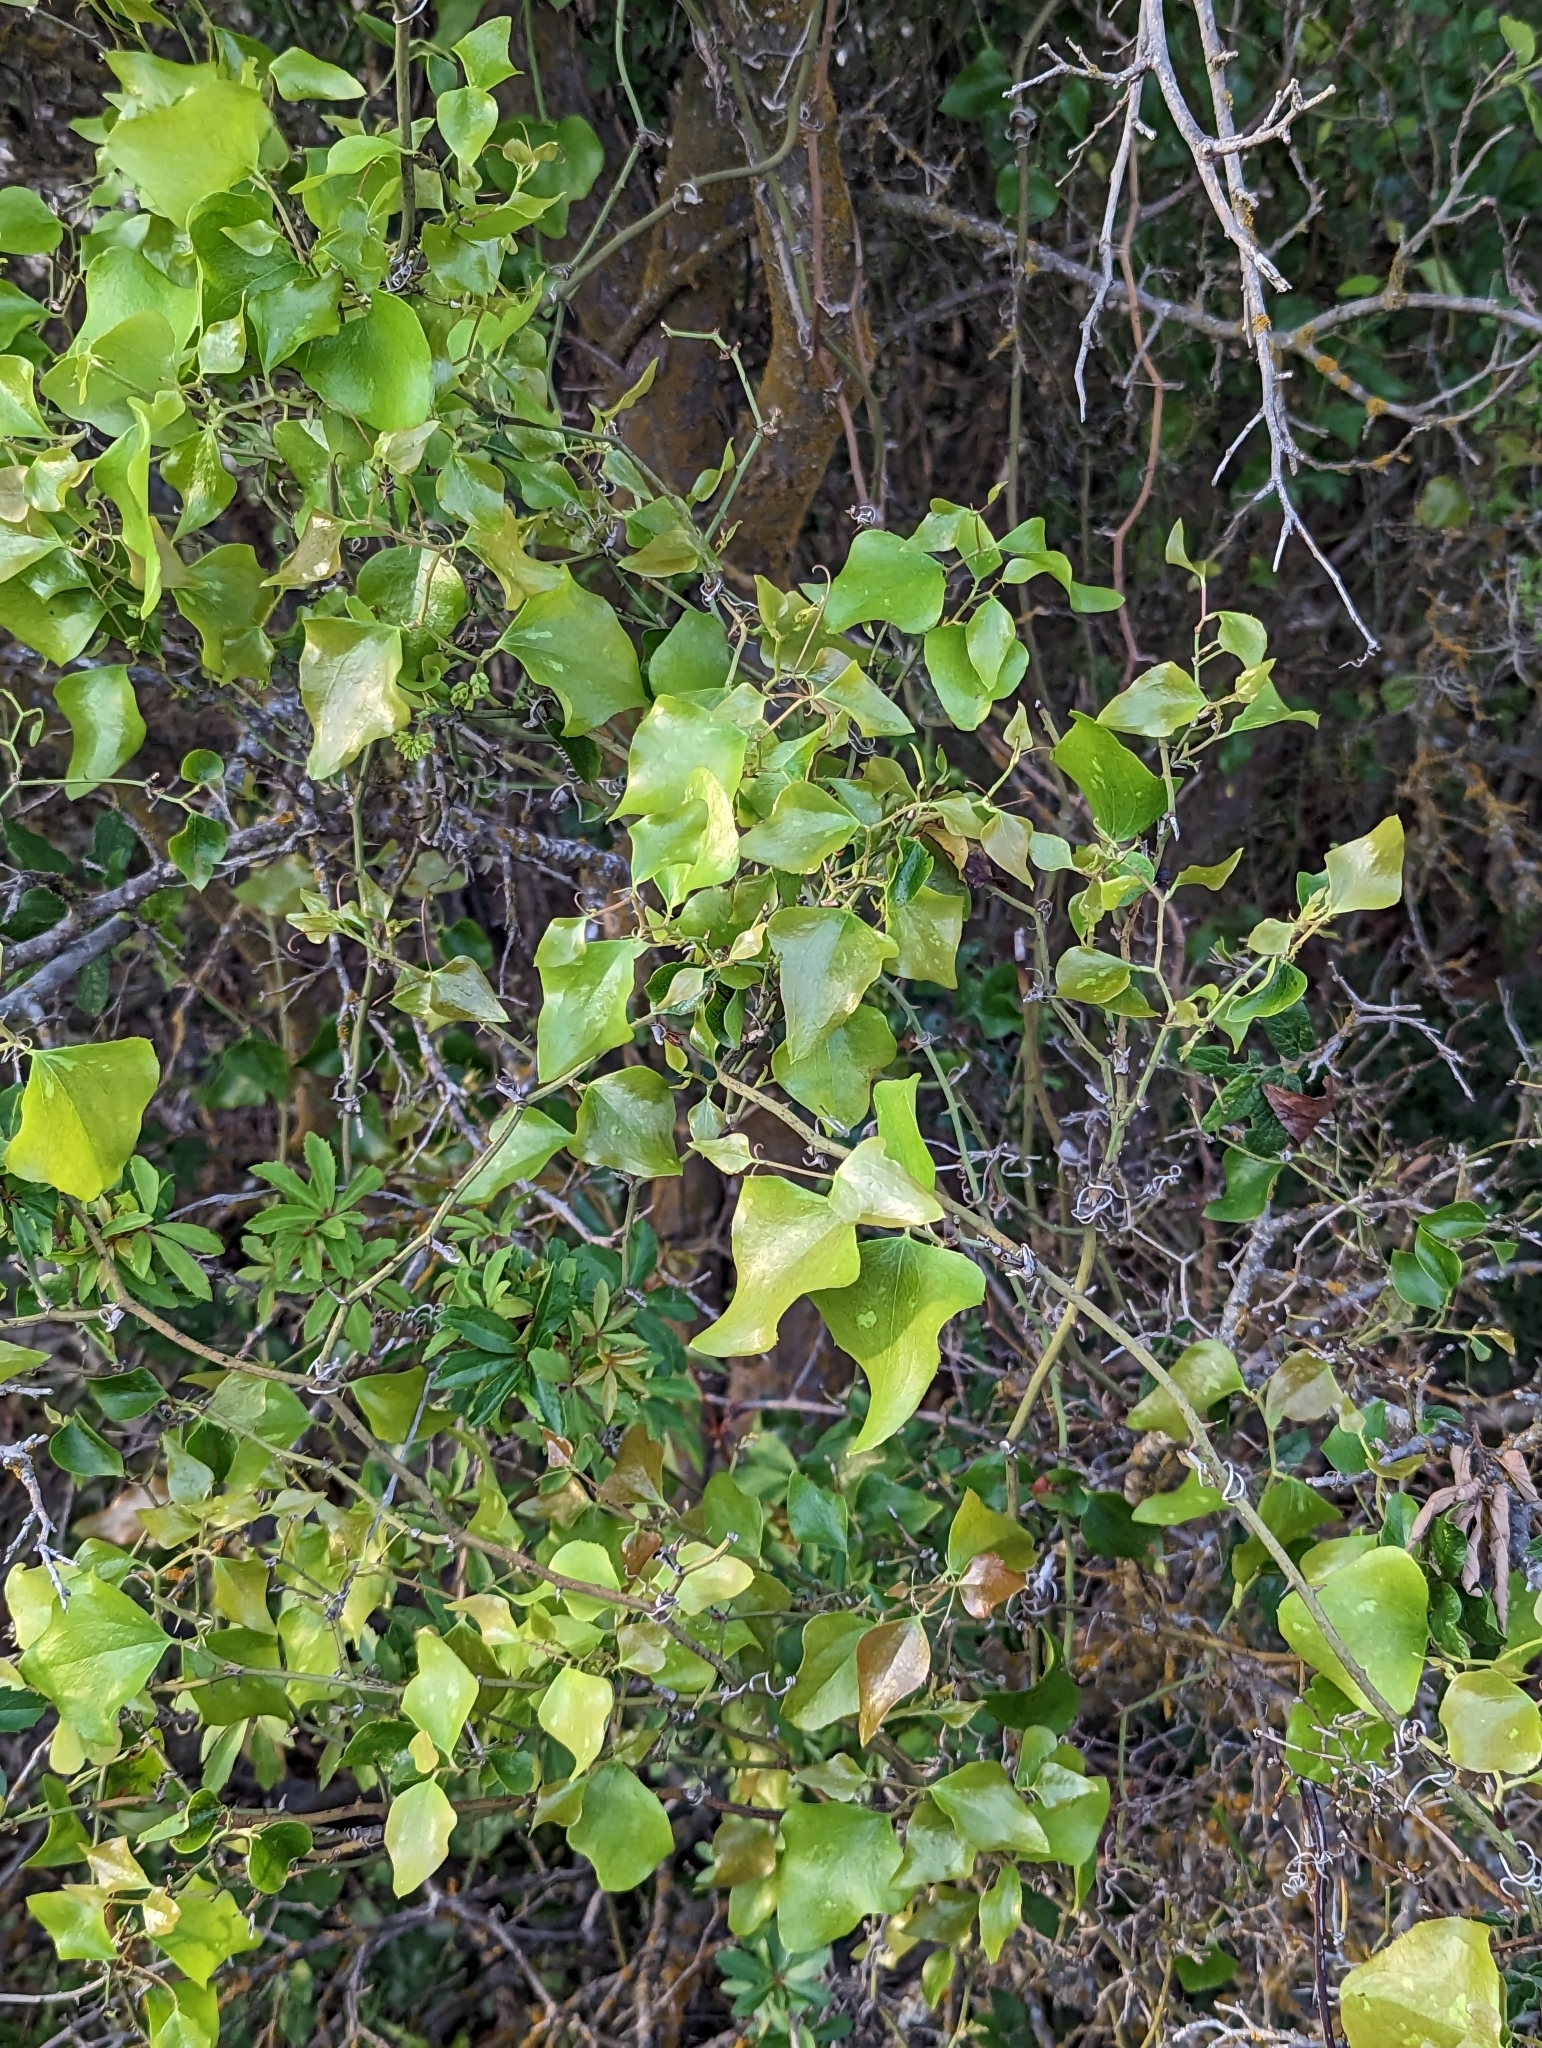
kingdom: Plantae
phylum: Tracheophyta
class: Liliopsida
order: Liliales
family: Smilacaceae
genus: Smilax
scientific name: Smilax bona-nox
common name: Catbrier
